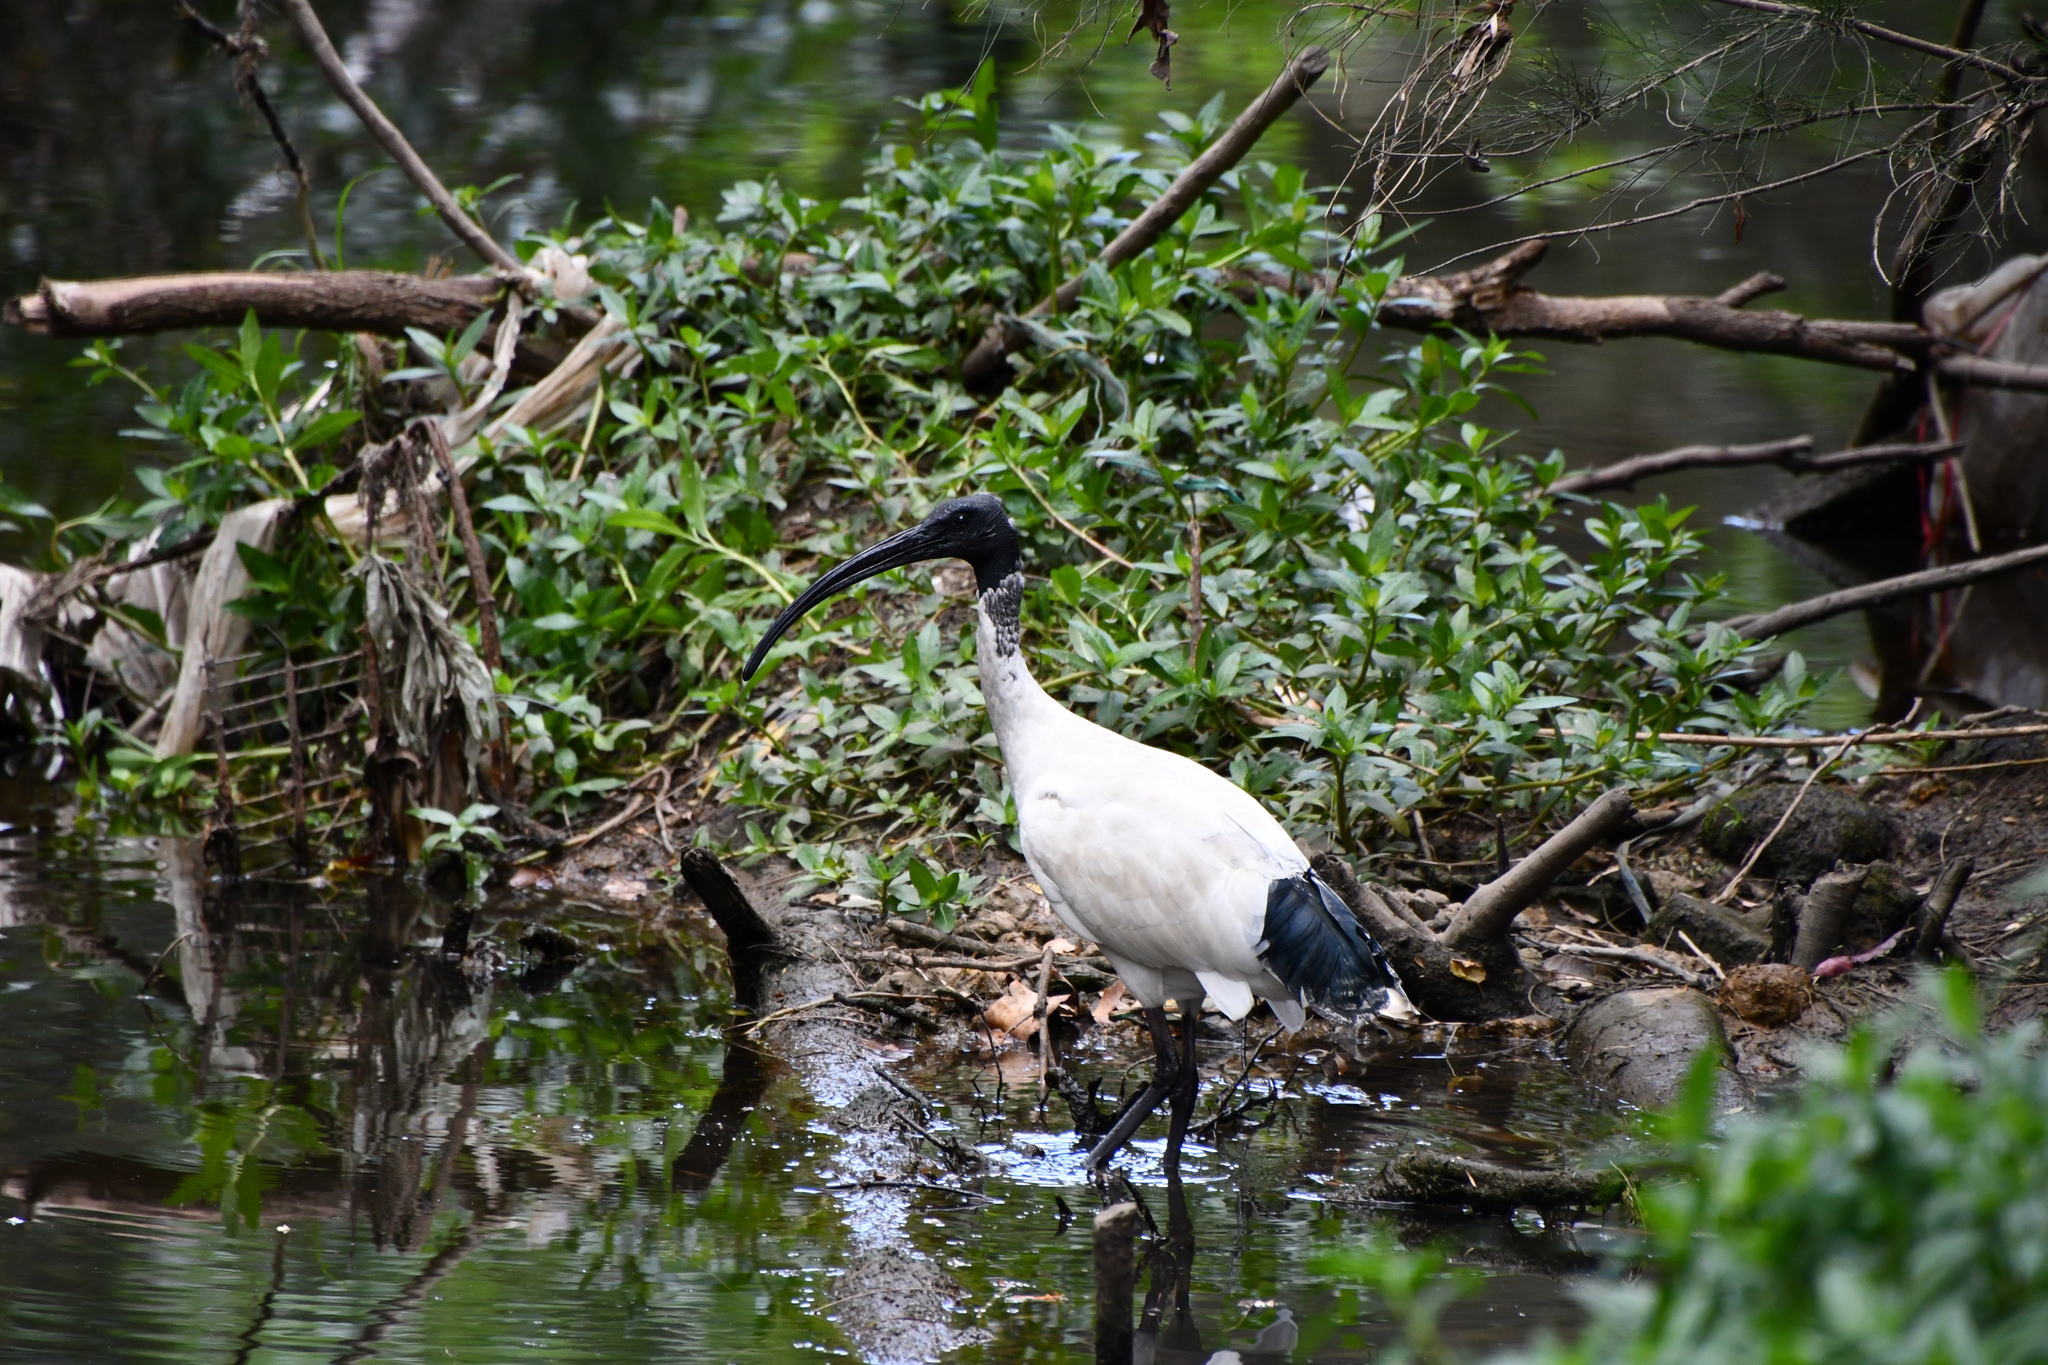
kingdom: Animalia
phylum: Chordata
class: Aves
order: Pelecaniformes
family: Threskiornithidae
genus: Threskiornis
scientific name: Threskiornis molucca
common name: Australian white ibis
